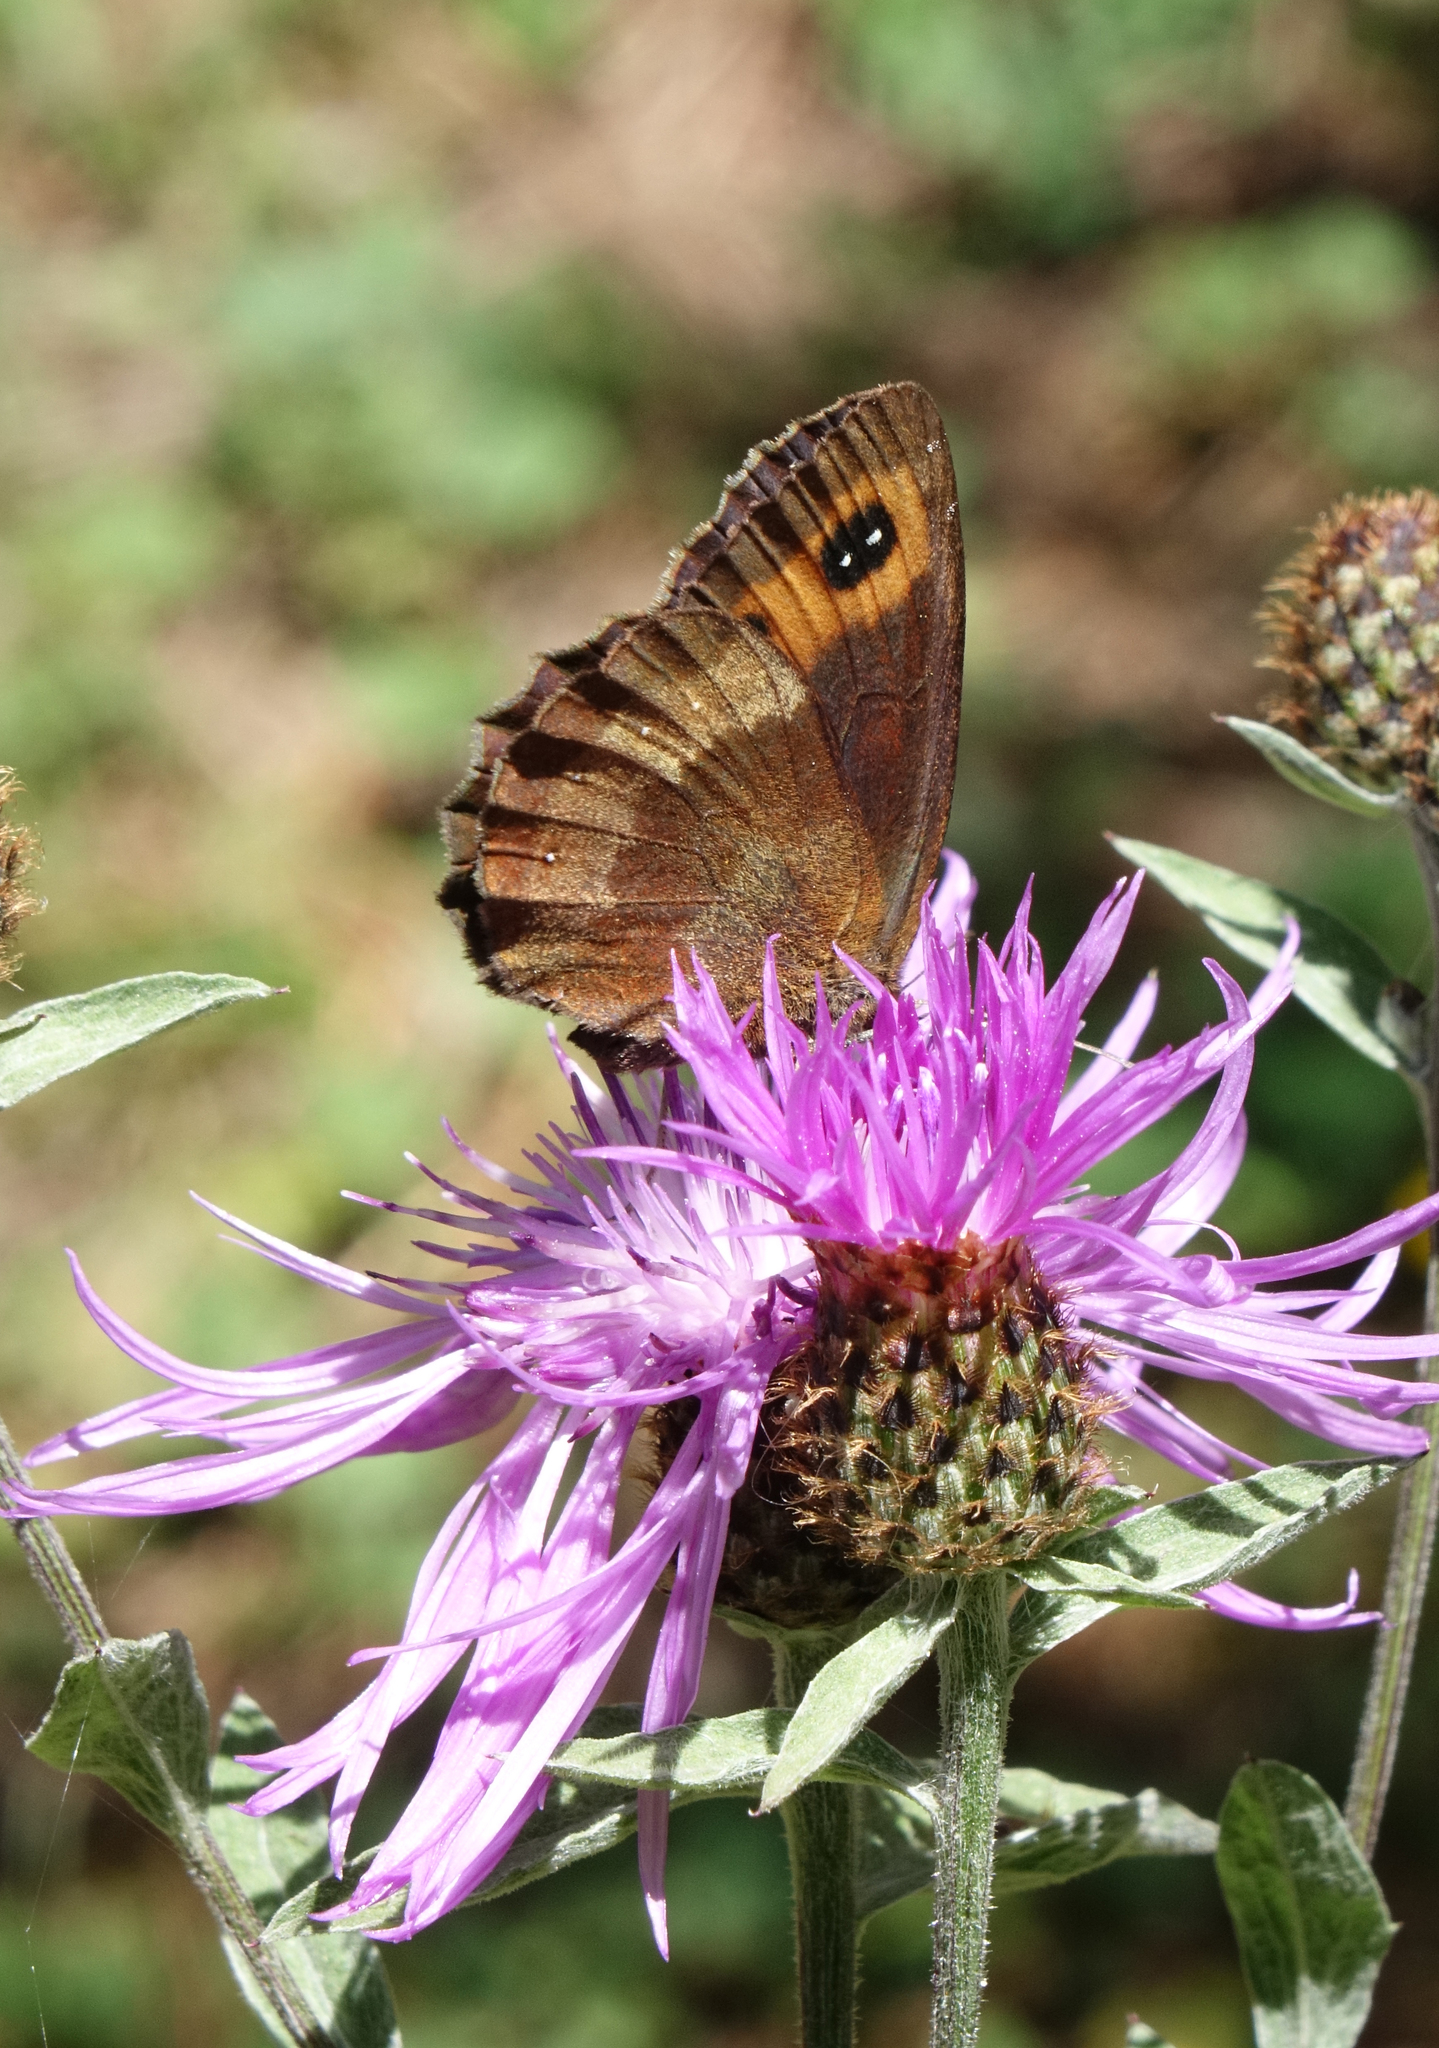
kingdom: Animalia
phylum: Arthropoda
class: Insecta
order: Lepidoptera
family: Nymphalidae
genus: Erebia
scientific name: Erebia aethiops
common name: Scotch argus
